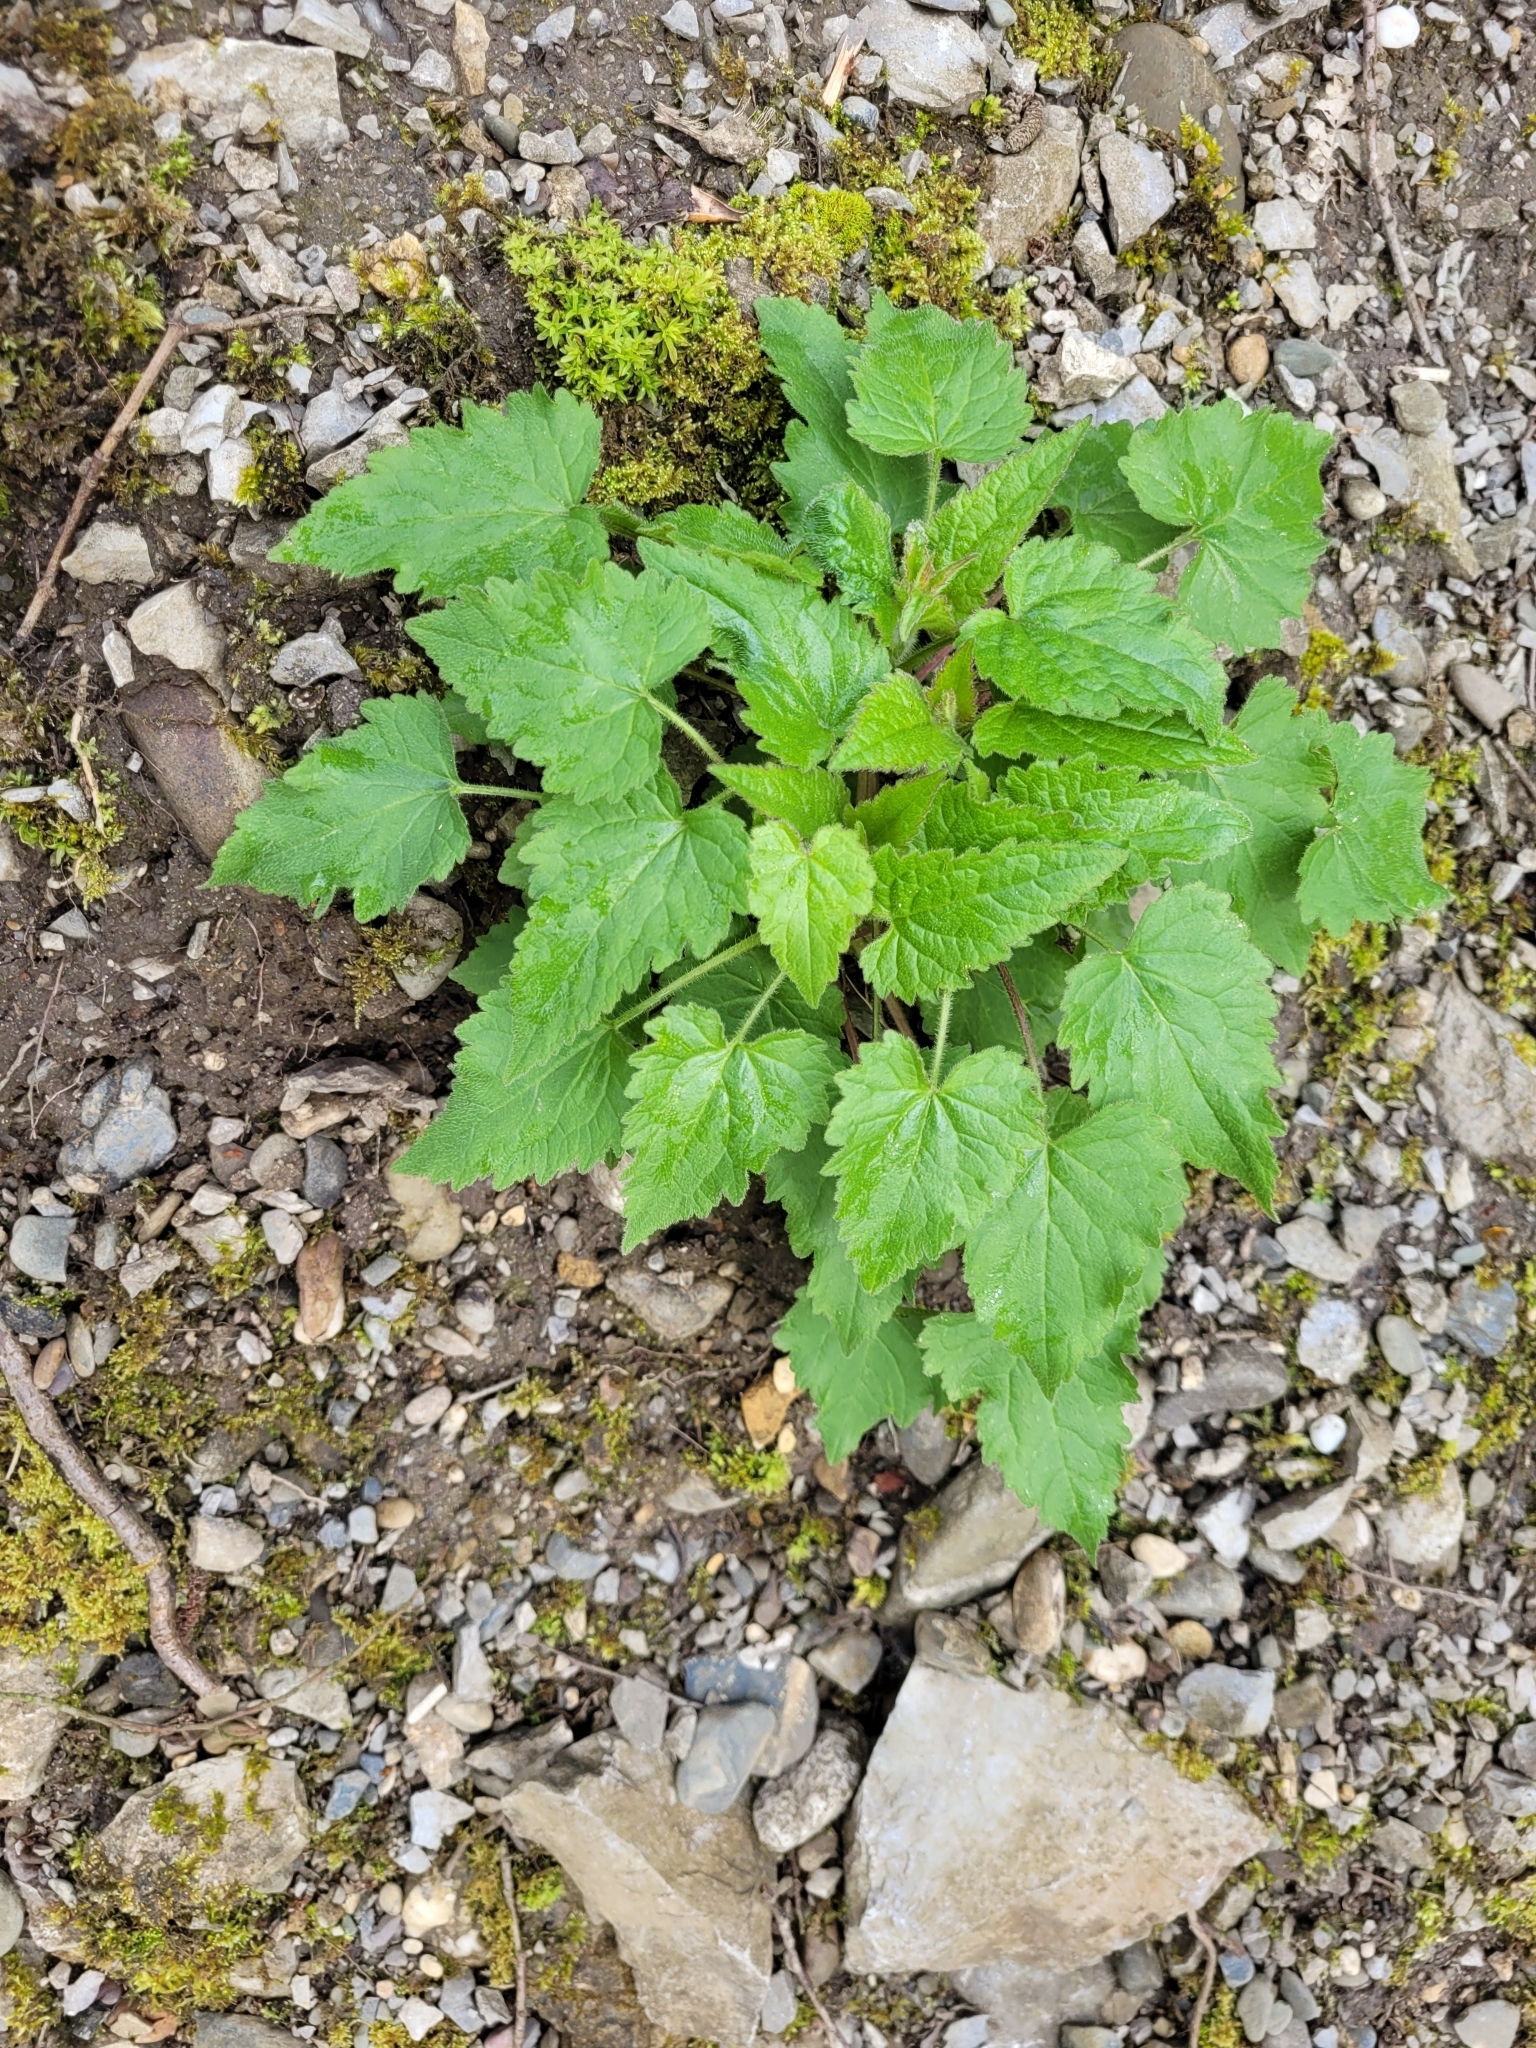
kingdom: Plantae
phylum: Tracheophyta
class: Magnoliopsida
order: Asterales
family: Campanulaceae
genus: Campanula
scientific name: Campanula trachelium
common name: Nettle-leaved bellflower
